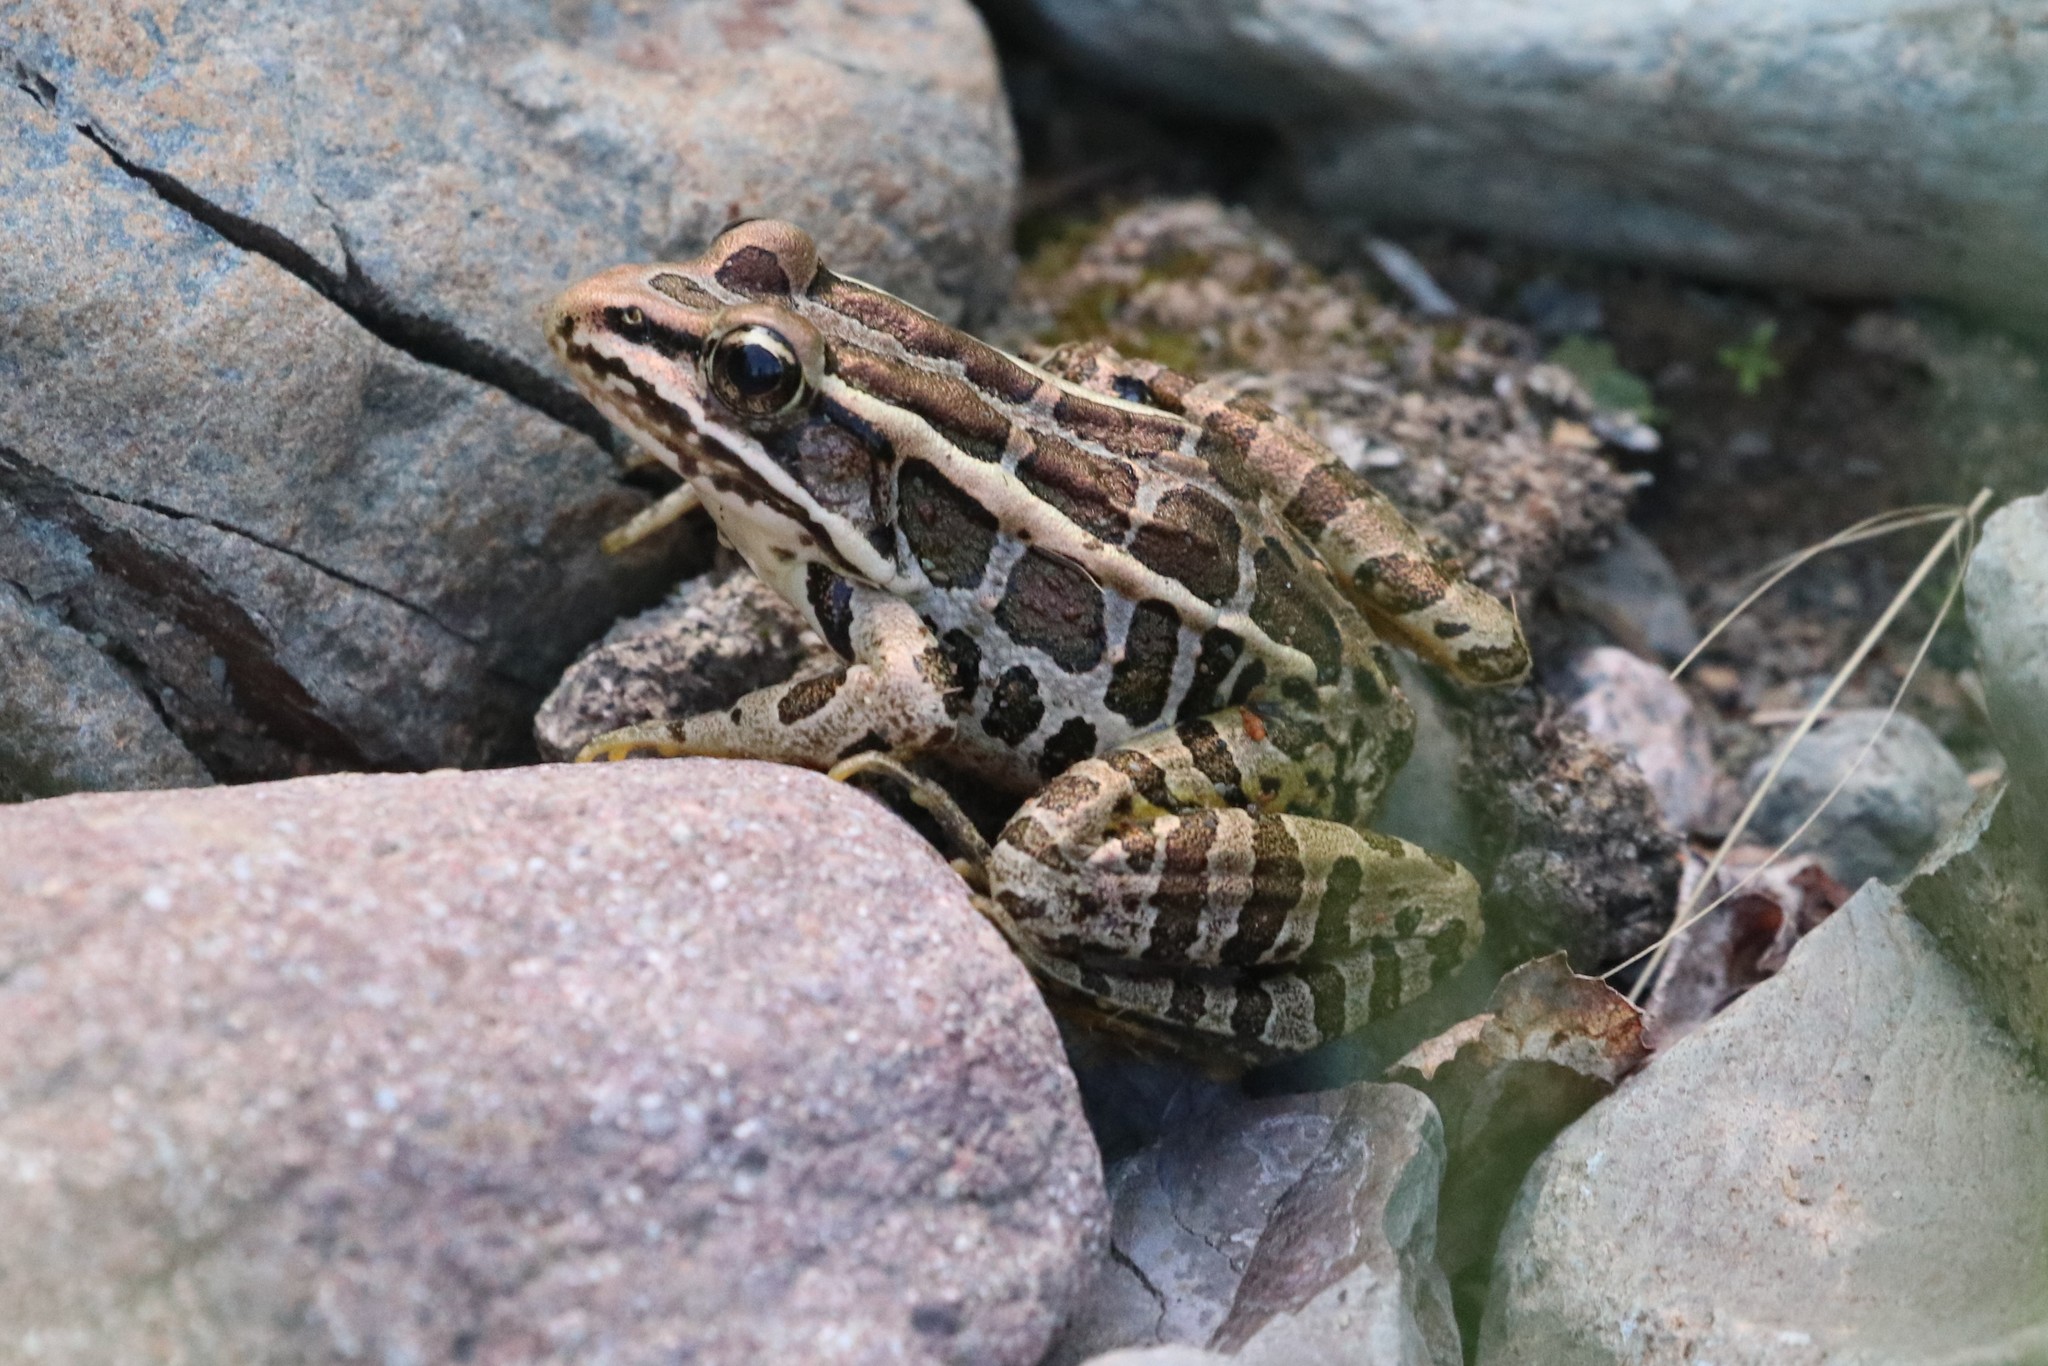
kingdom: Animalia
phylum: Chordata
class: Amphibia
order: Anura
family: Ranidae
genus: Lithobates
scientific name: Lithobates palustris
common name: Pickerel frog
